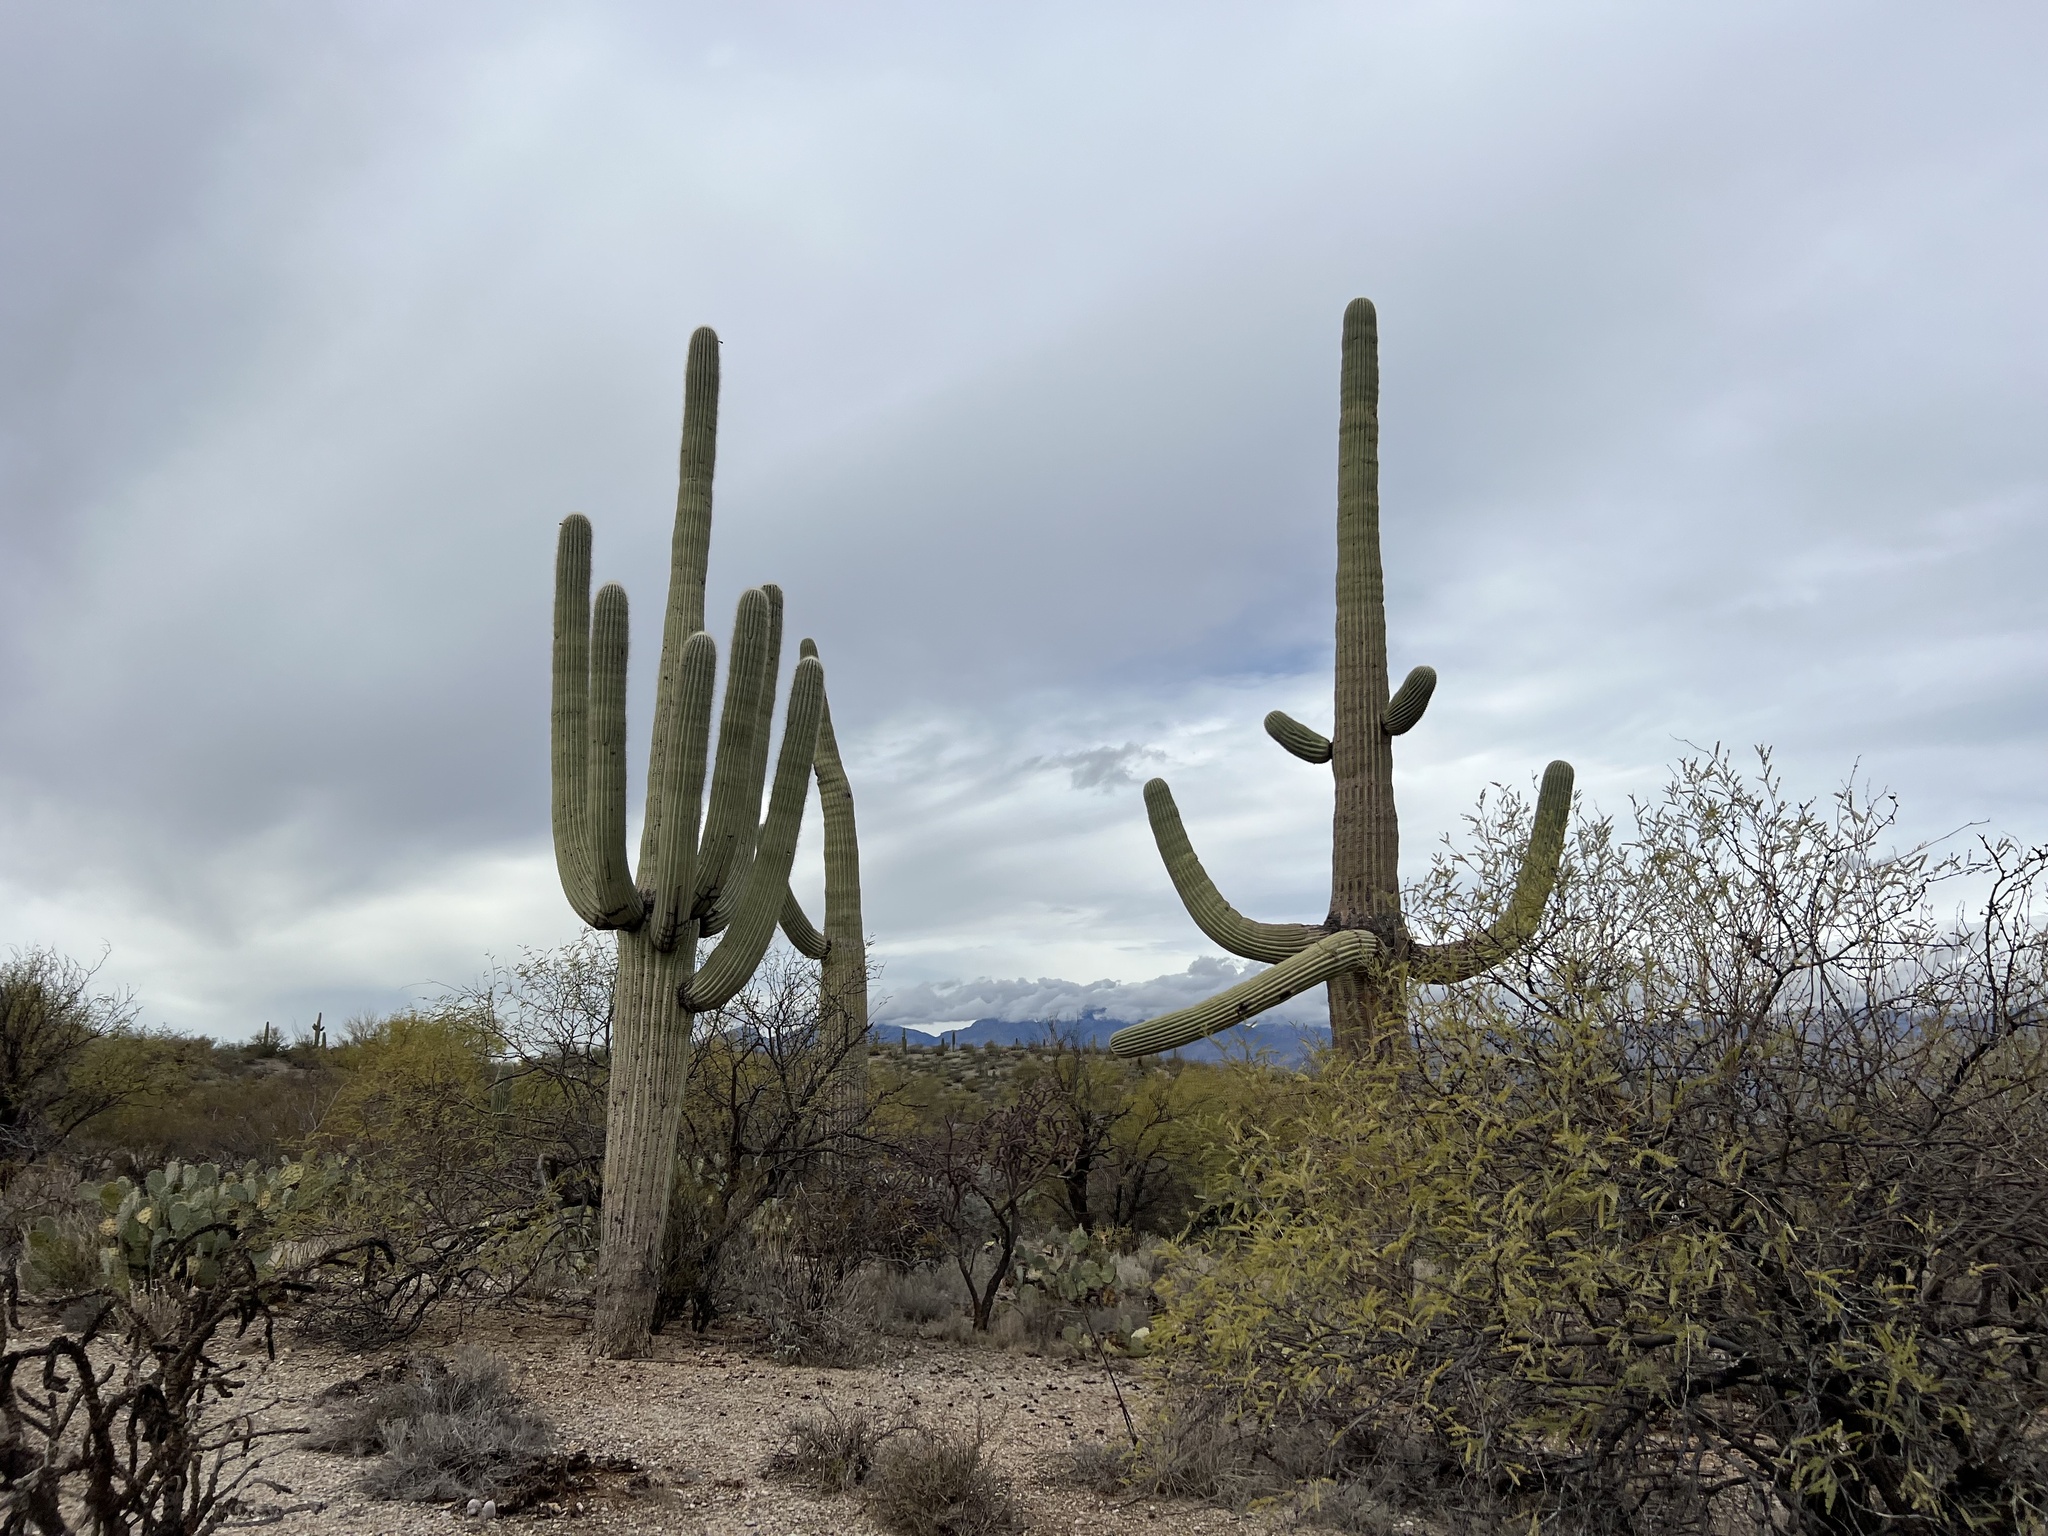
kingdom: Plantae
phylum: Tracheophyta
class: Magnoliopsida
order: Caryophyllales
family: Cactaceae
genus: Carnegiea
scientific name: Carnegiea gigantea
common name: Saguaro
